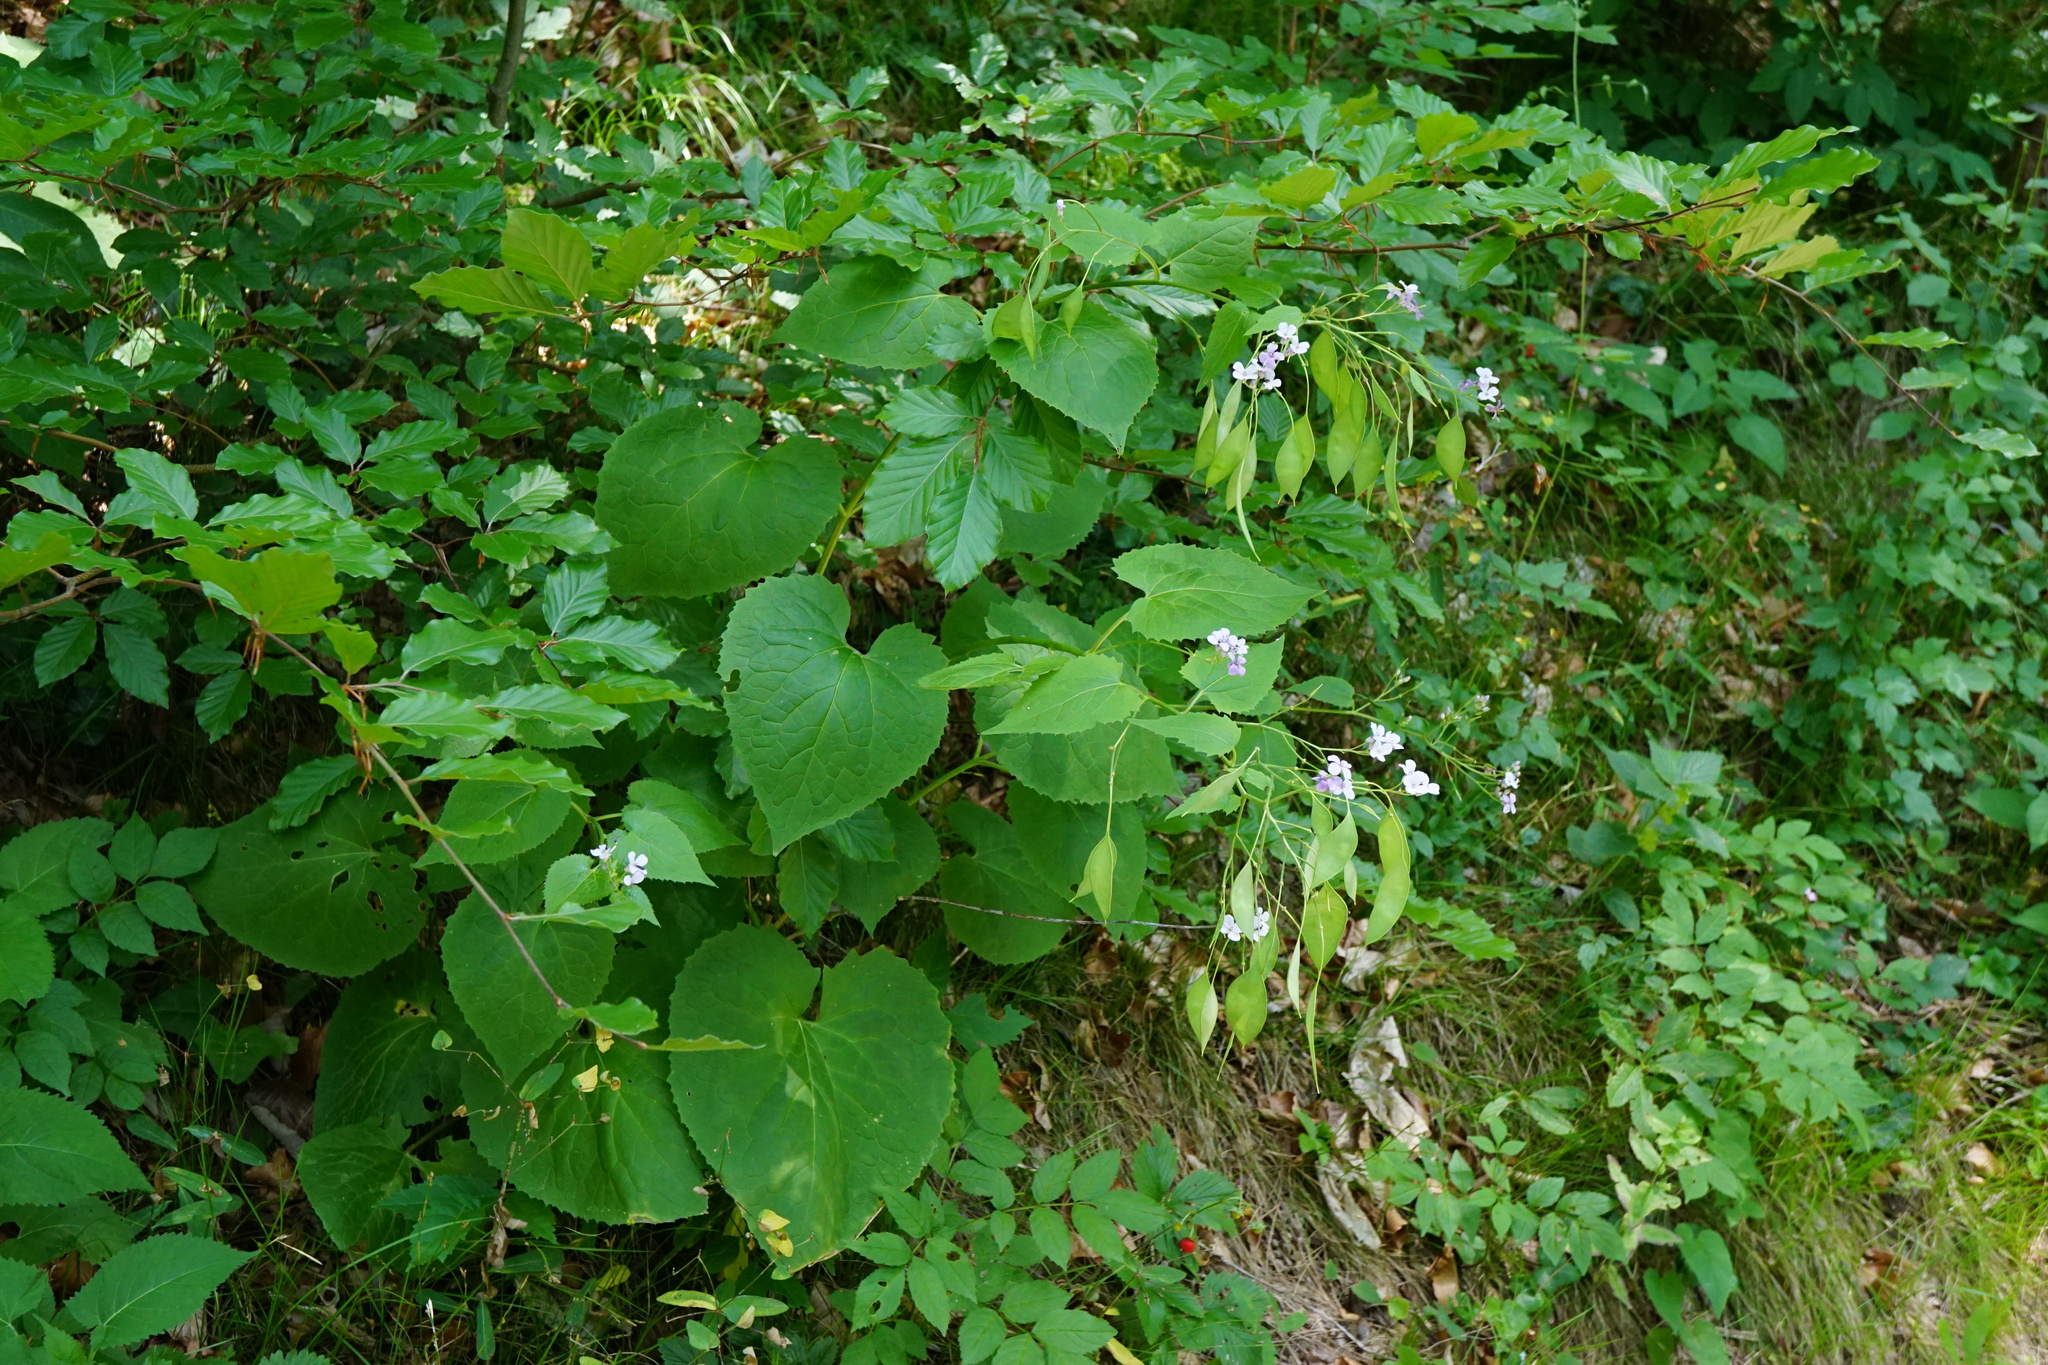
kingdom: Plantae
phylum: Tracheophyta
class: Magnoliopsida
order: Brassicales
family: Brassicaceae
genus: Lunaria
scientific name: Lunaria rediviva
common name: Perennial honesty
